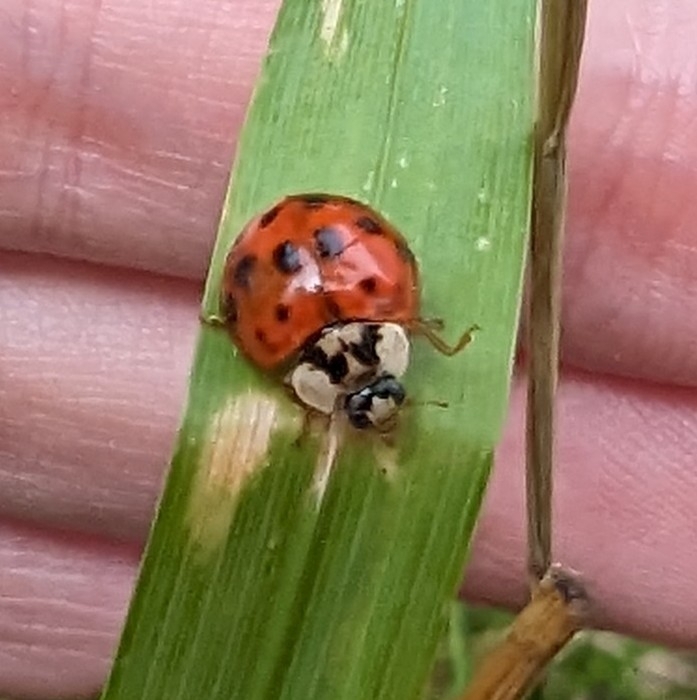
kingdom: Animalia
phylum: Arthropoda
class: Insecta
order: Coleoptera
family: Coccinellidae
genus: Harmonia
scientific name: Harmonia axyridis
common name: Harlequin ladybird
